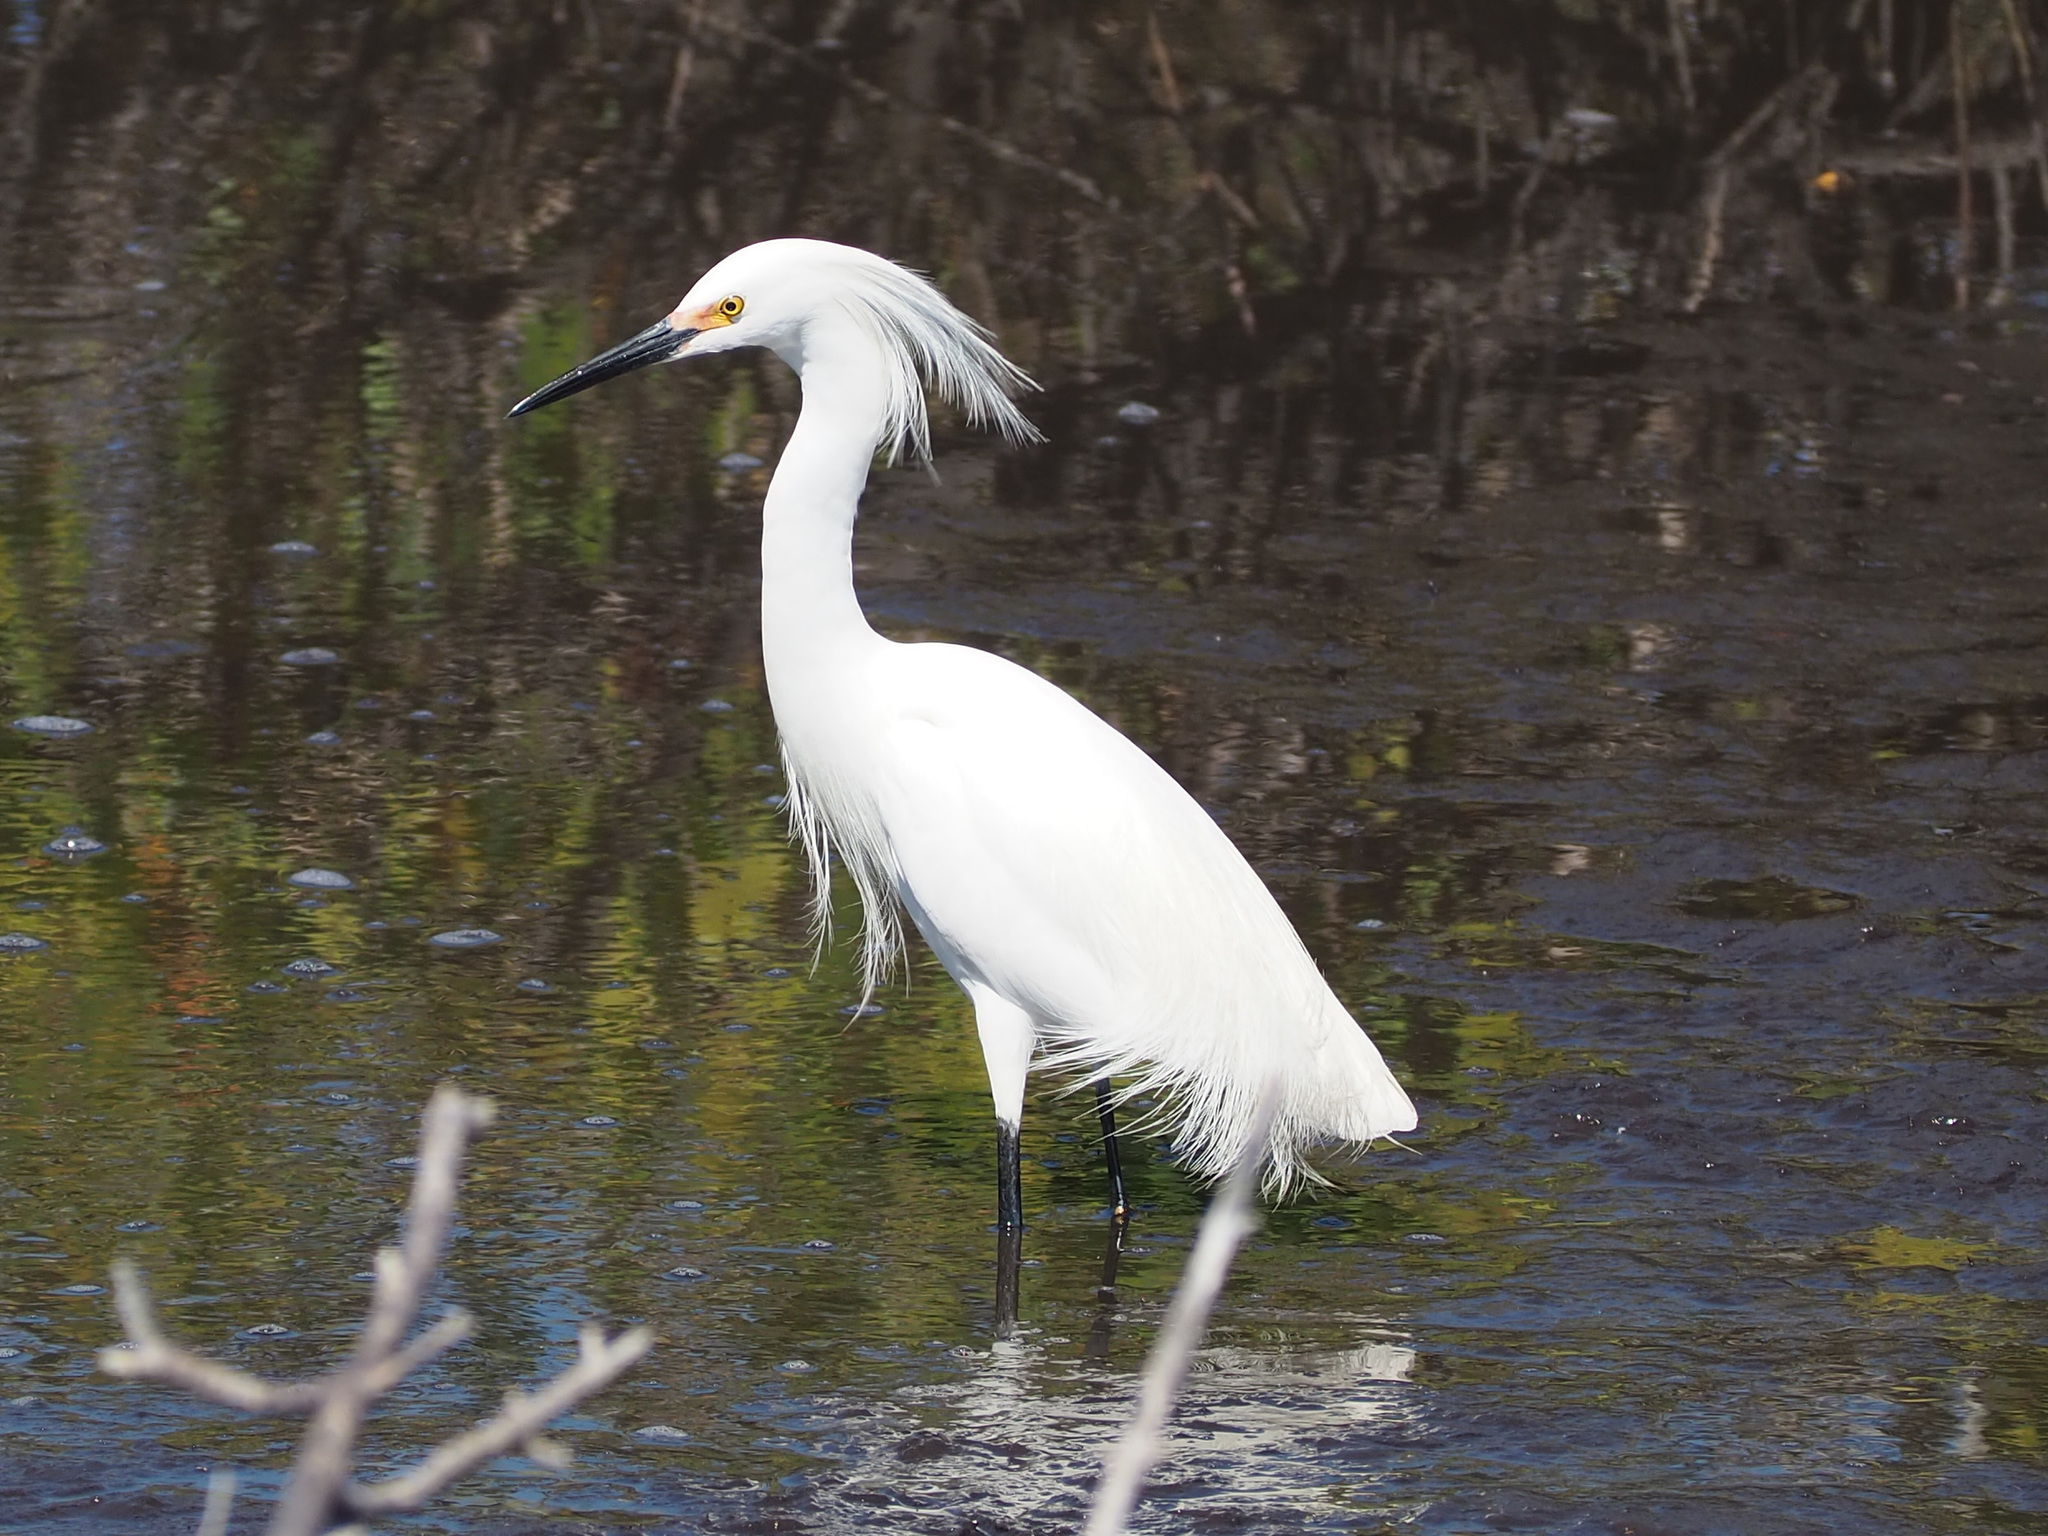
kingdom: Animalia
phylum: Chordata
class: Aves
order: Pelecaniformes
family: Ardeidae
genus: Egretta
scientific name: Egretta thula
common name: Snowy egret
